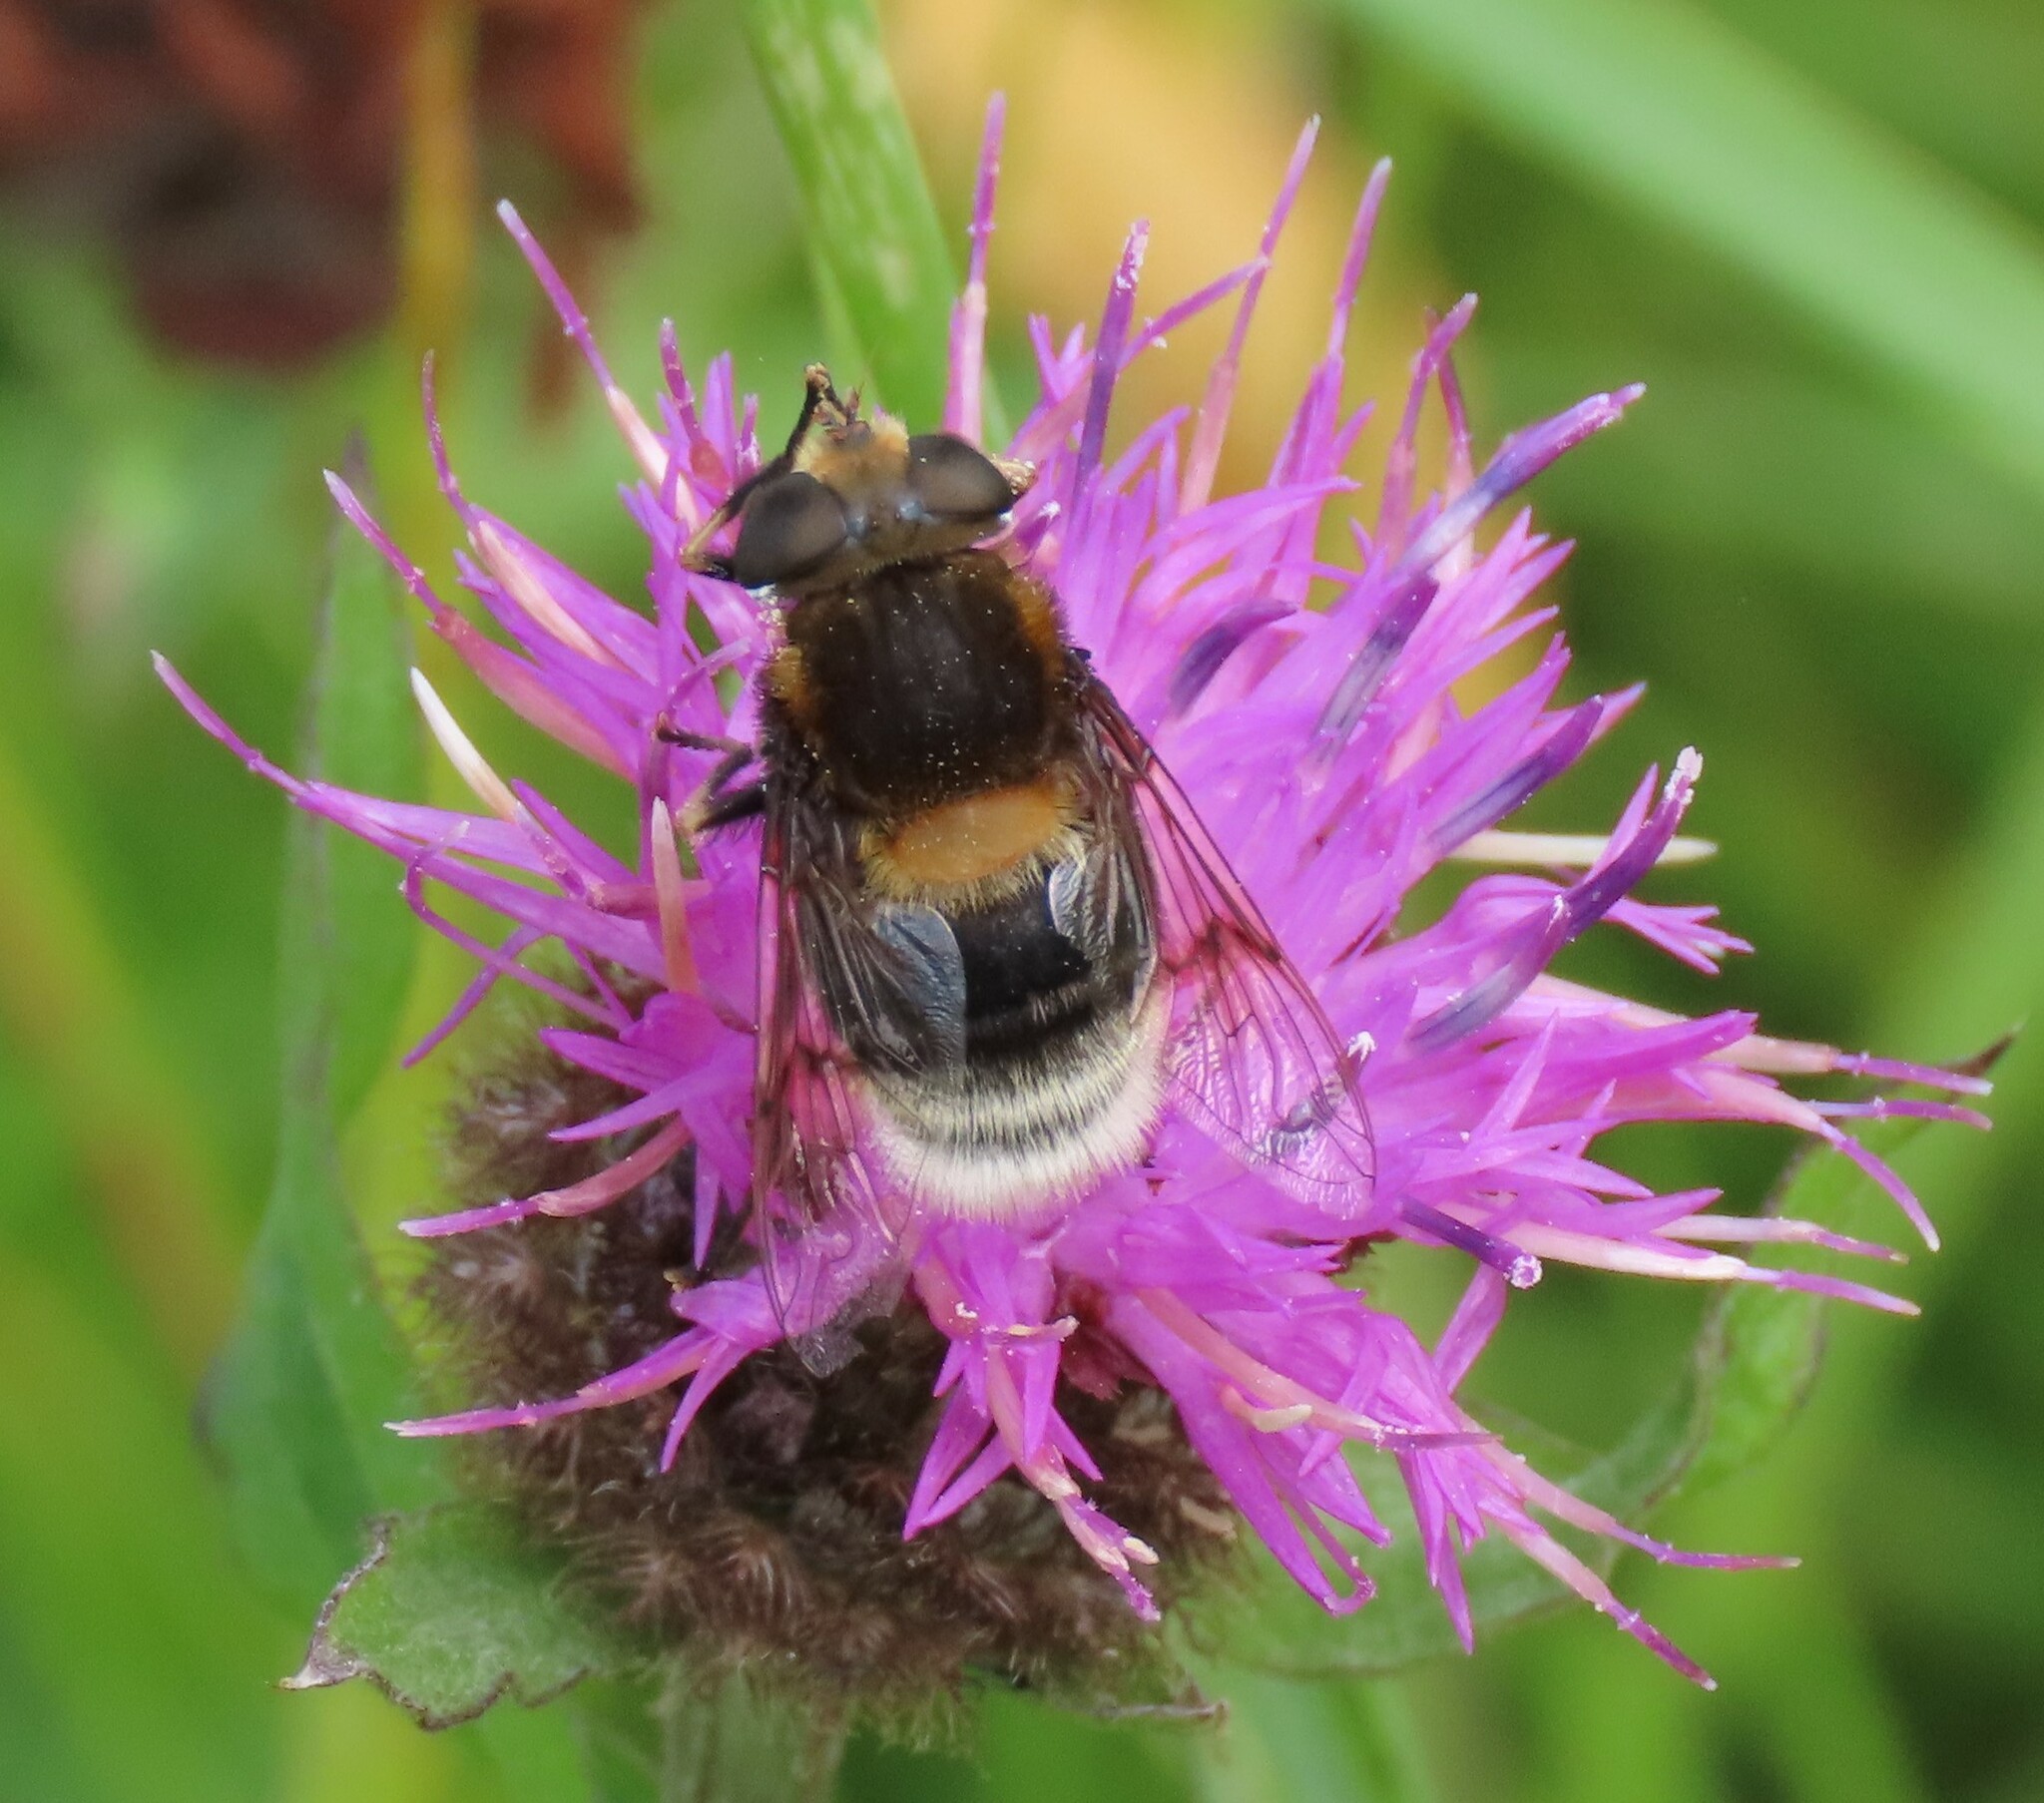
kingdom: Animalia
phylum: Arthropoda
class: Insecta
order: Diptera
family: Syrphidae
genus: Eristalis
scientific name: Eristalis intricaria
